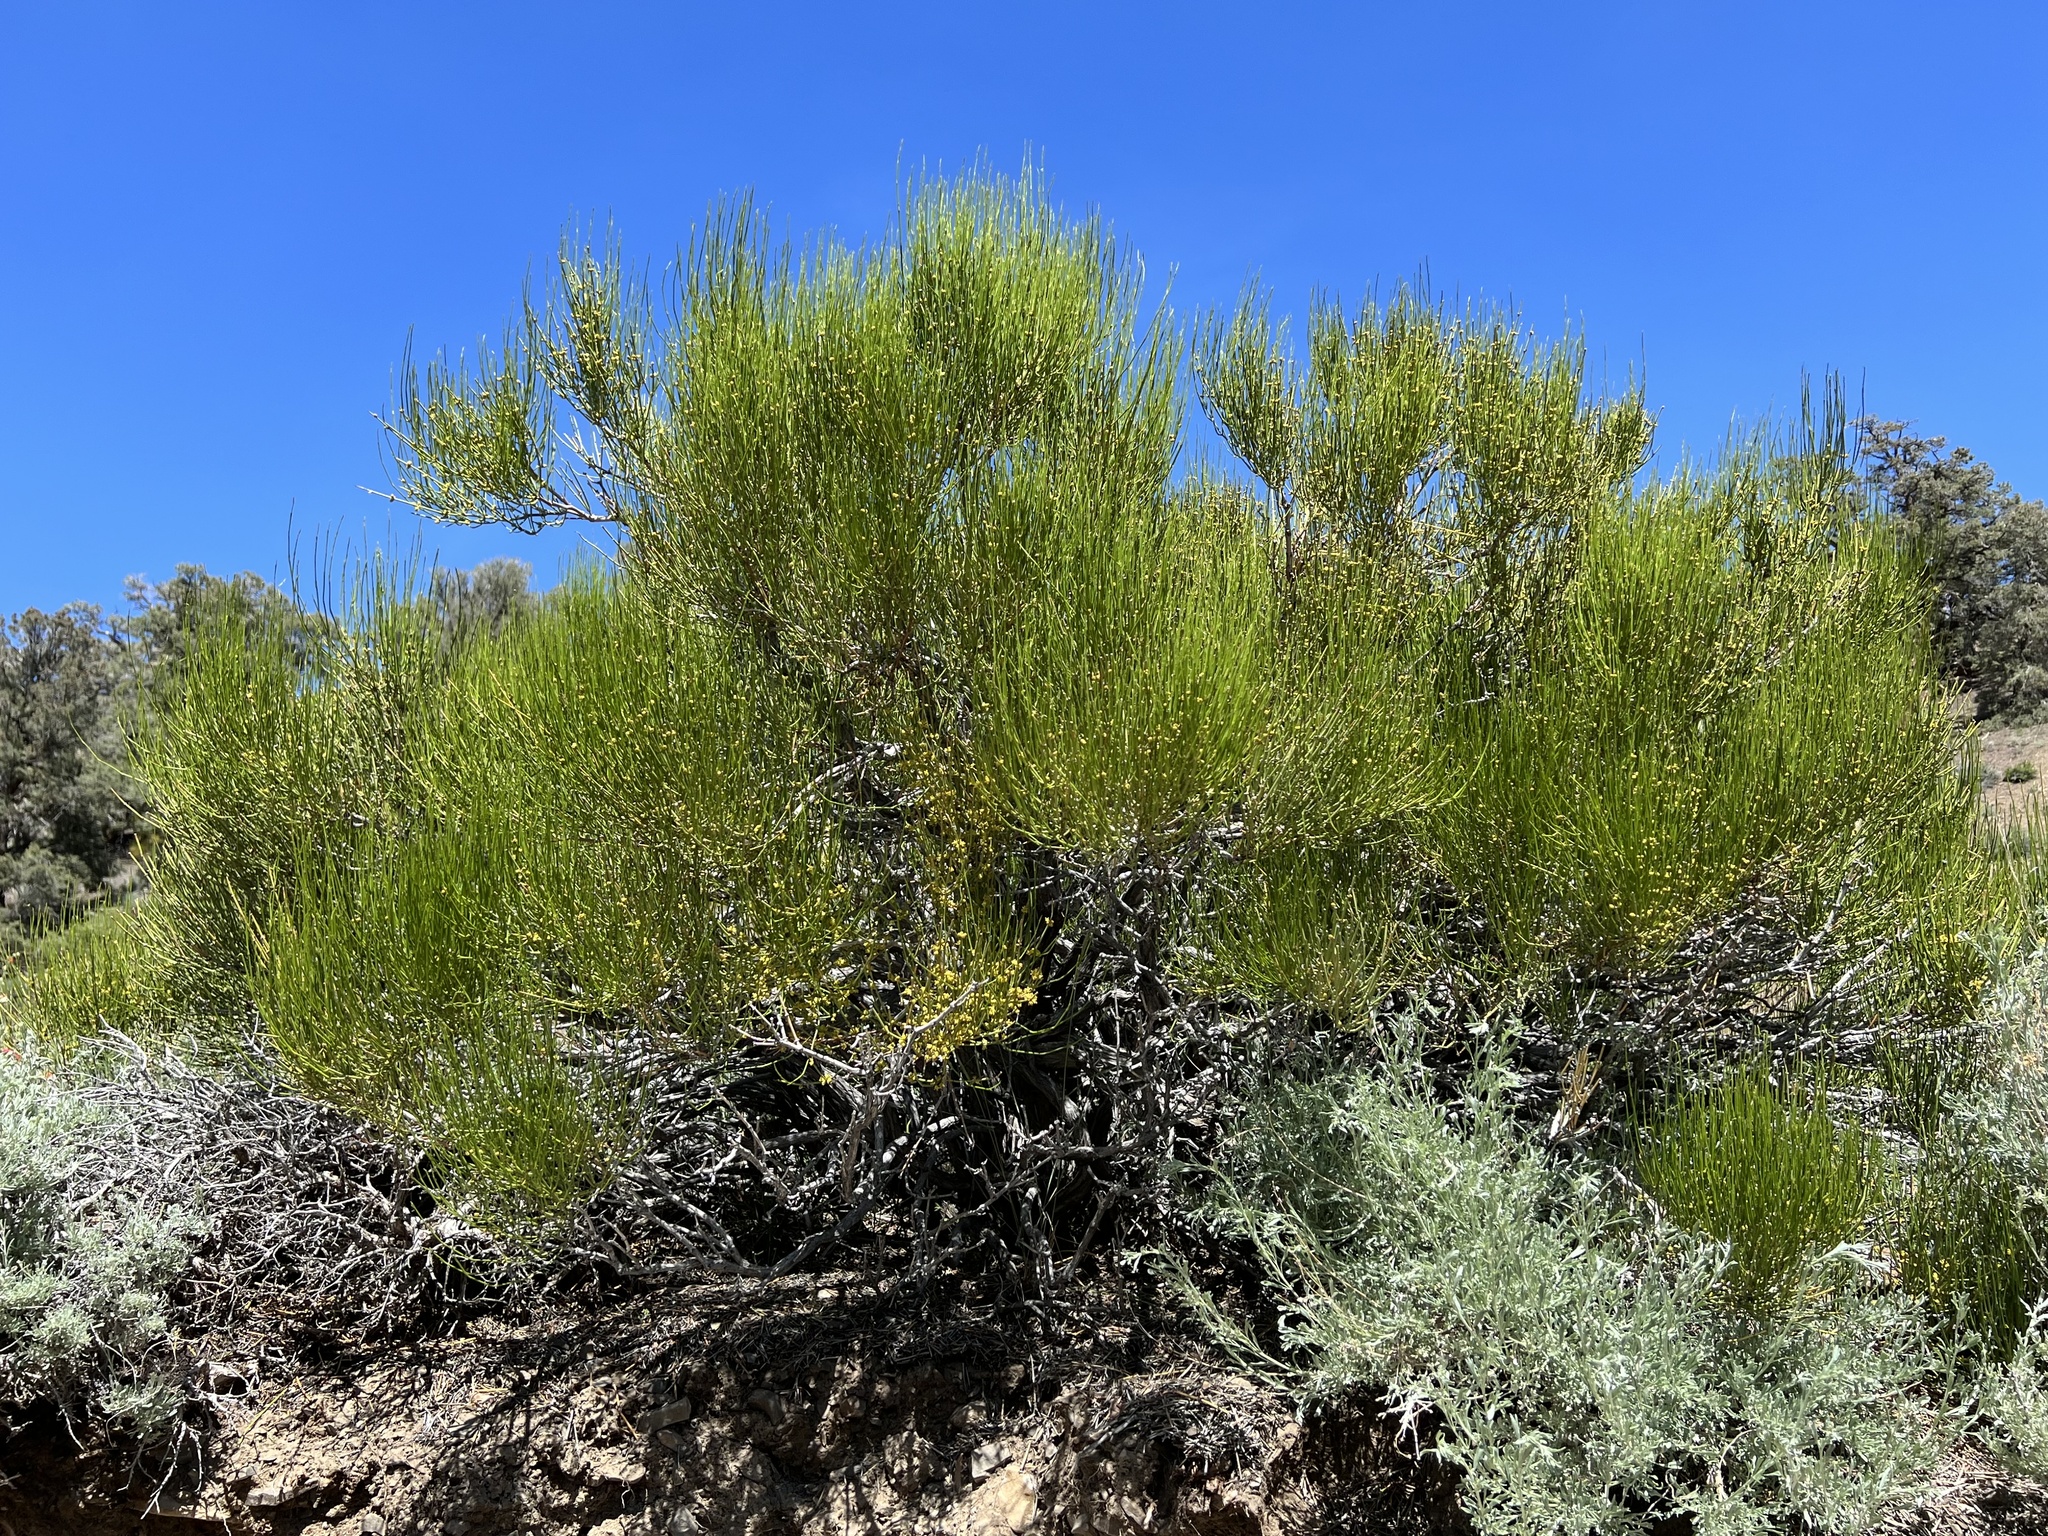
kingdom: Plantae
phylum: Tracheophyta
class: Gnetopsida
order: Ephedrales
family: Ephedraceae
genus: Ephedra
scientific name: Ephedra viridis
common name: Green ephedra
